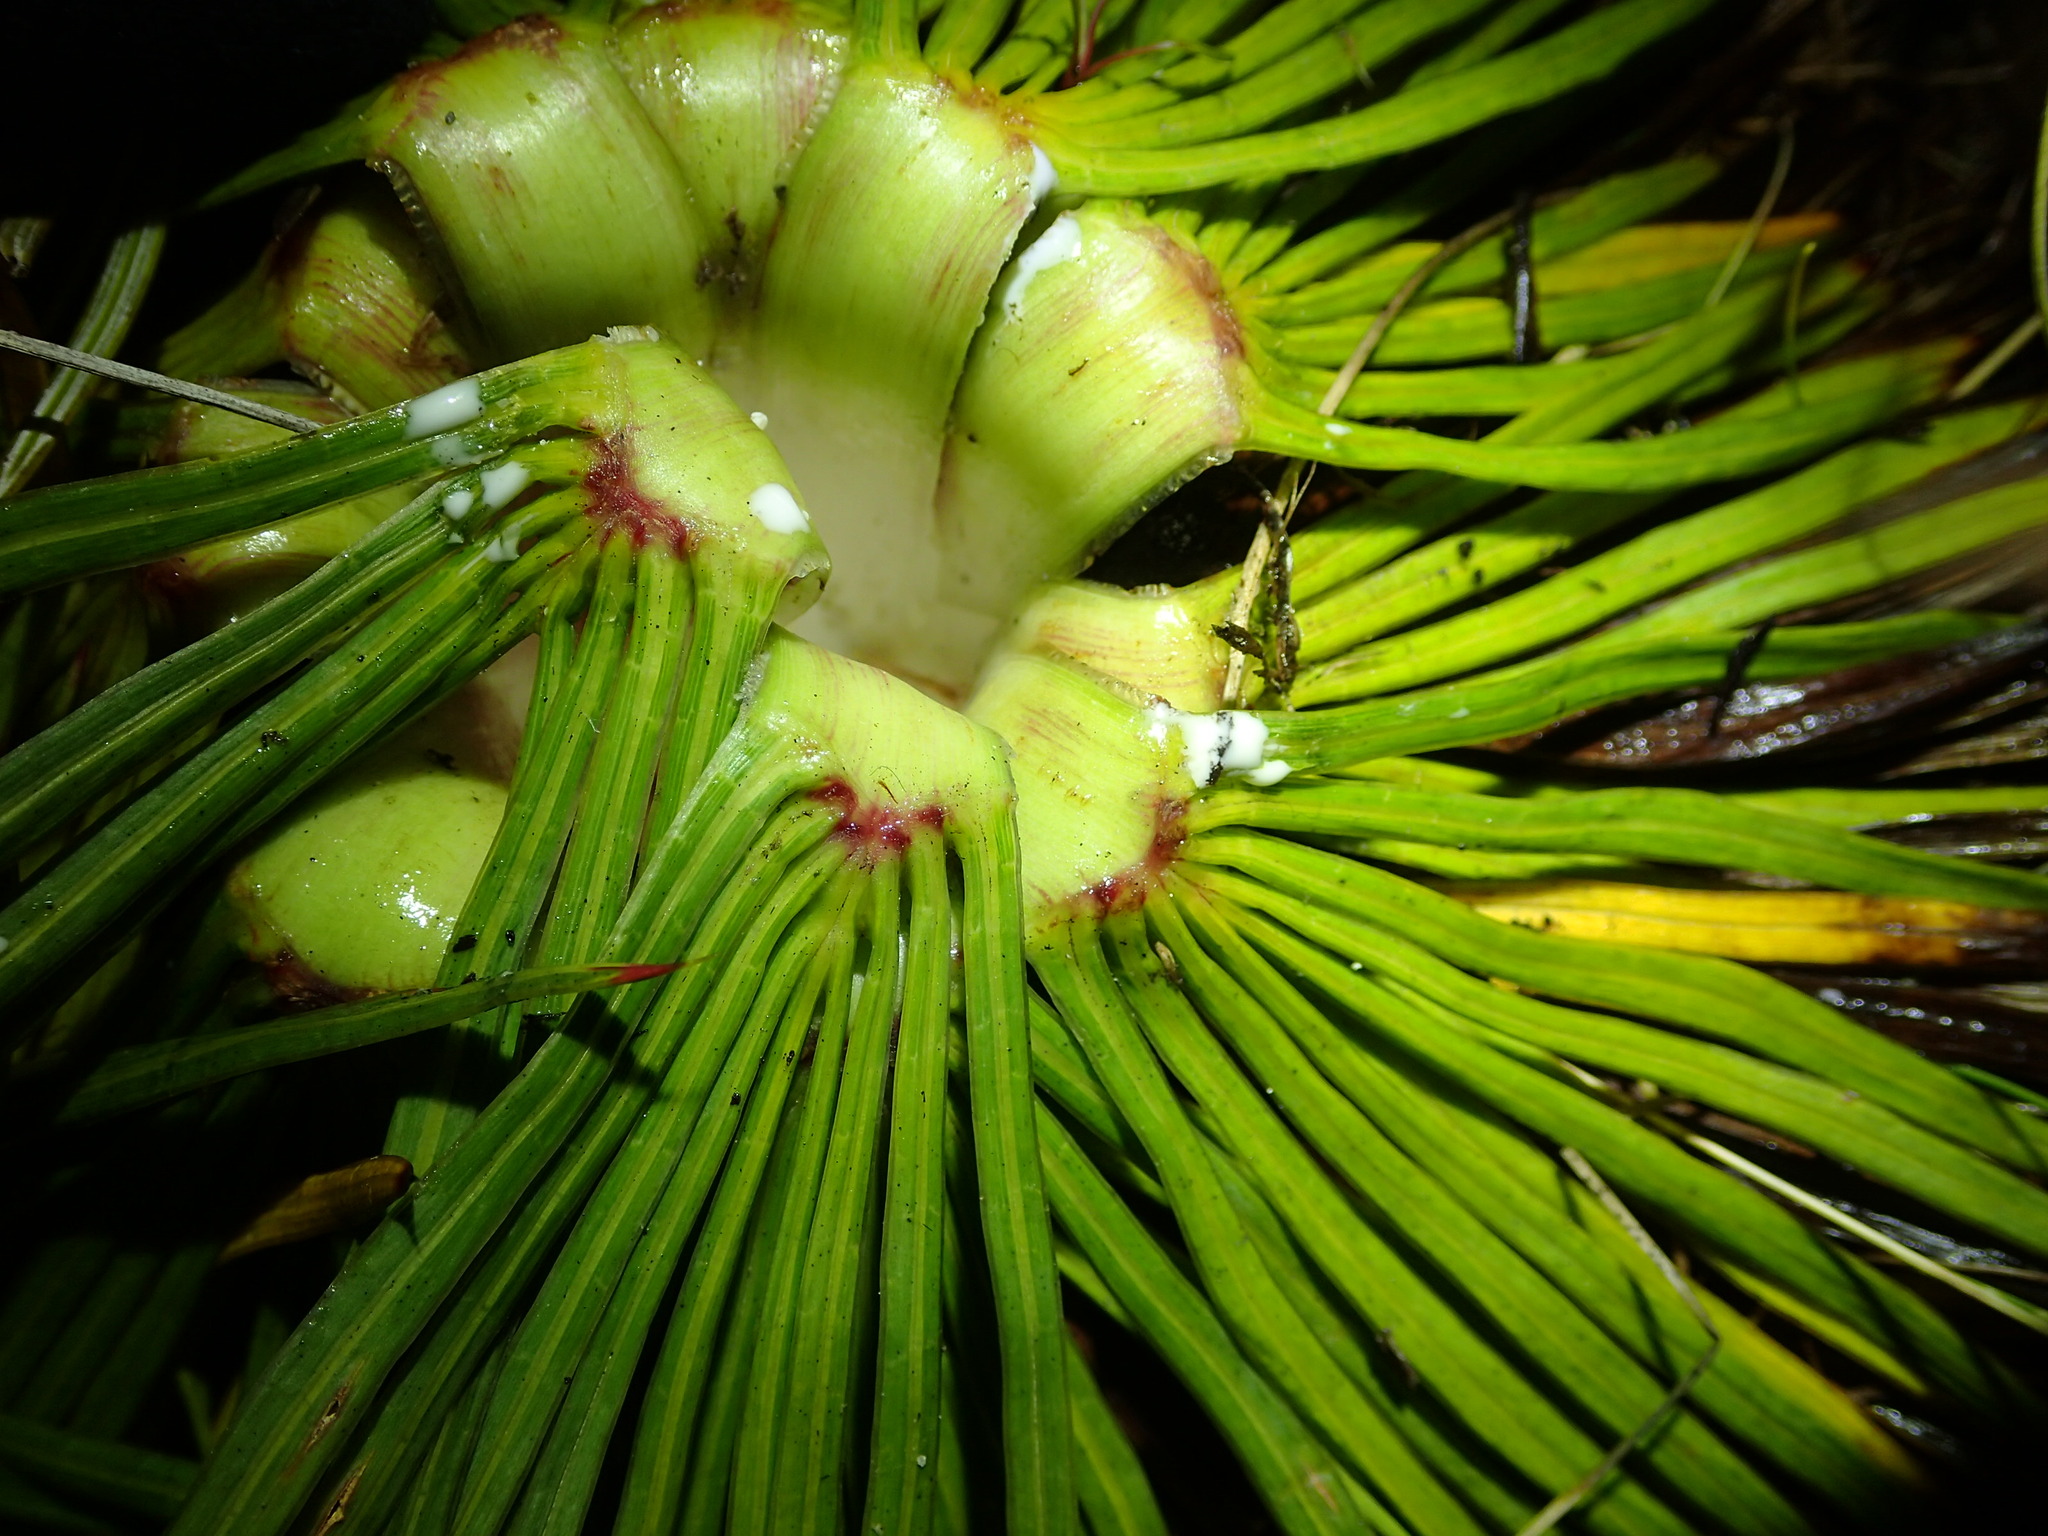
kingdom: Plantae
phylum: Tracheophyta
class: Magnoliopsida
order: Apiales
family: Apiaceae
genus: Aciphylla
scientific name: Aciphylla spedenii
